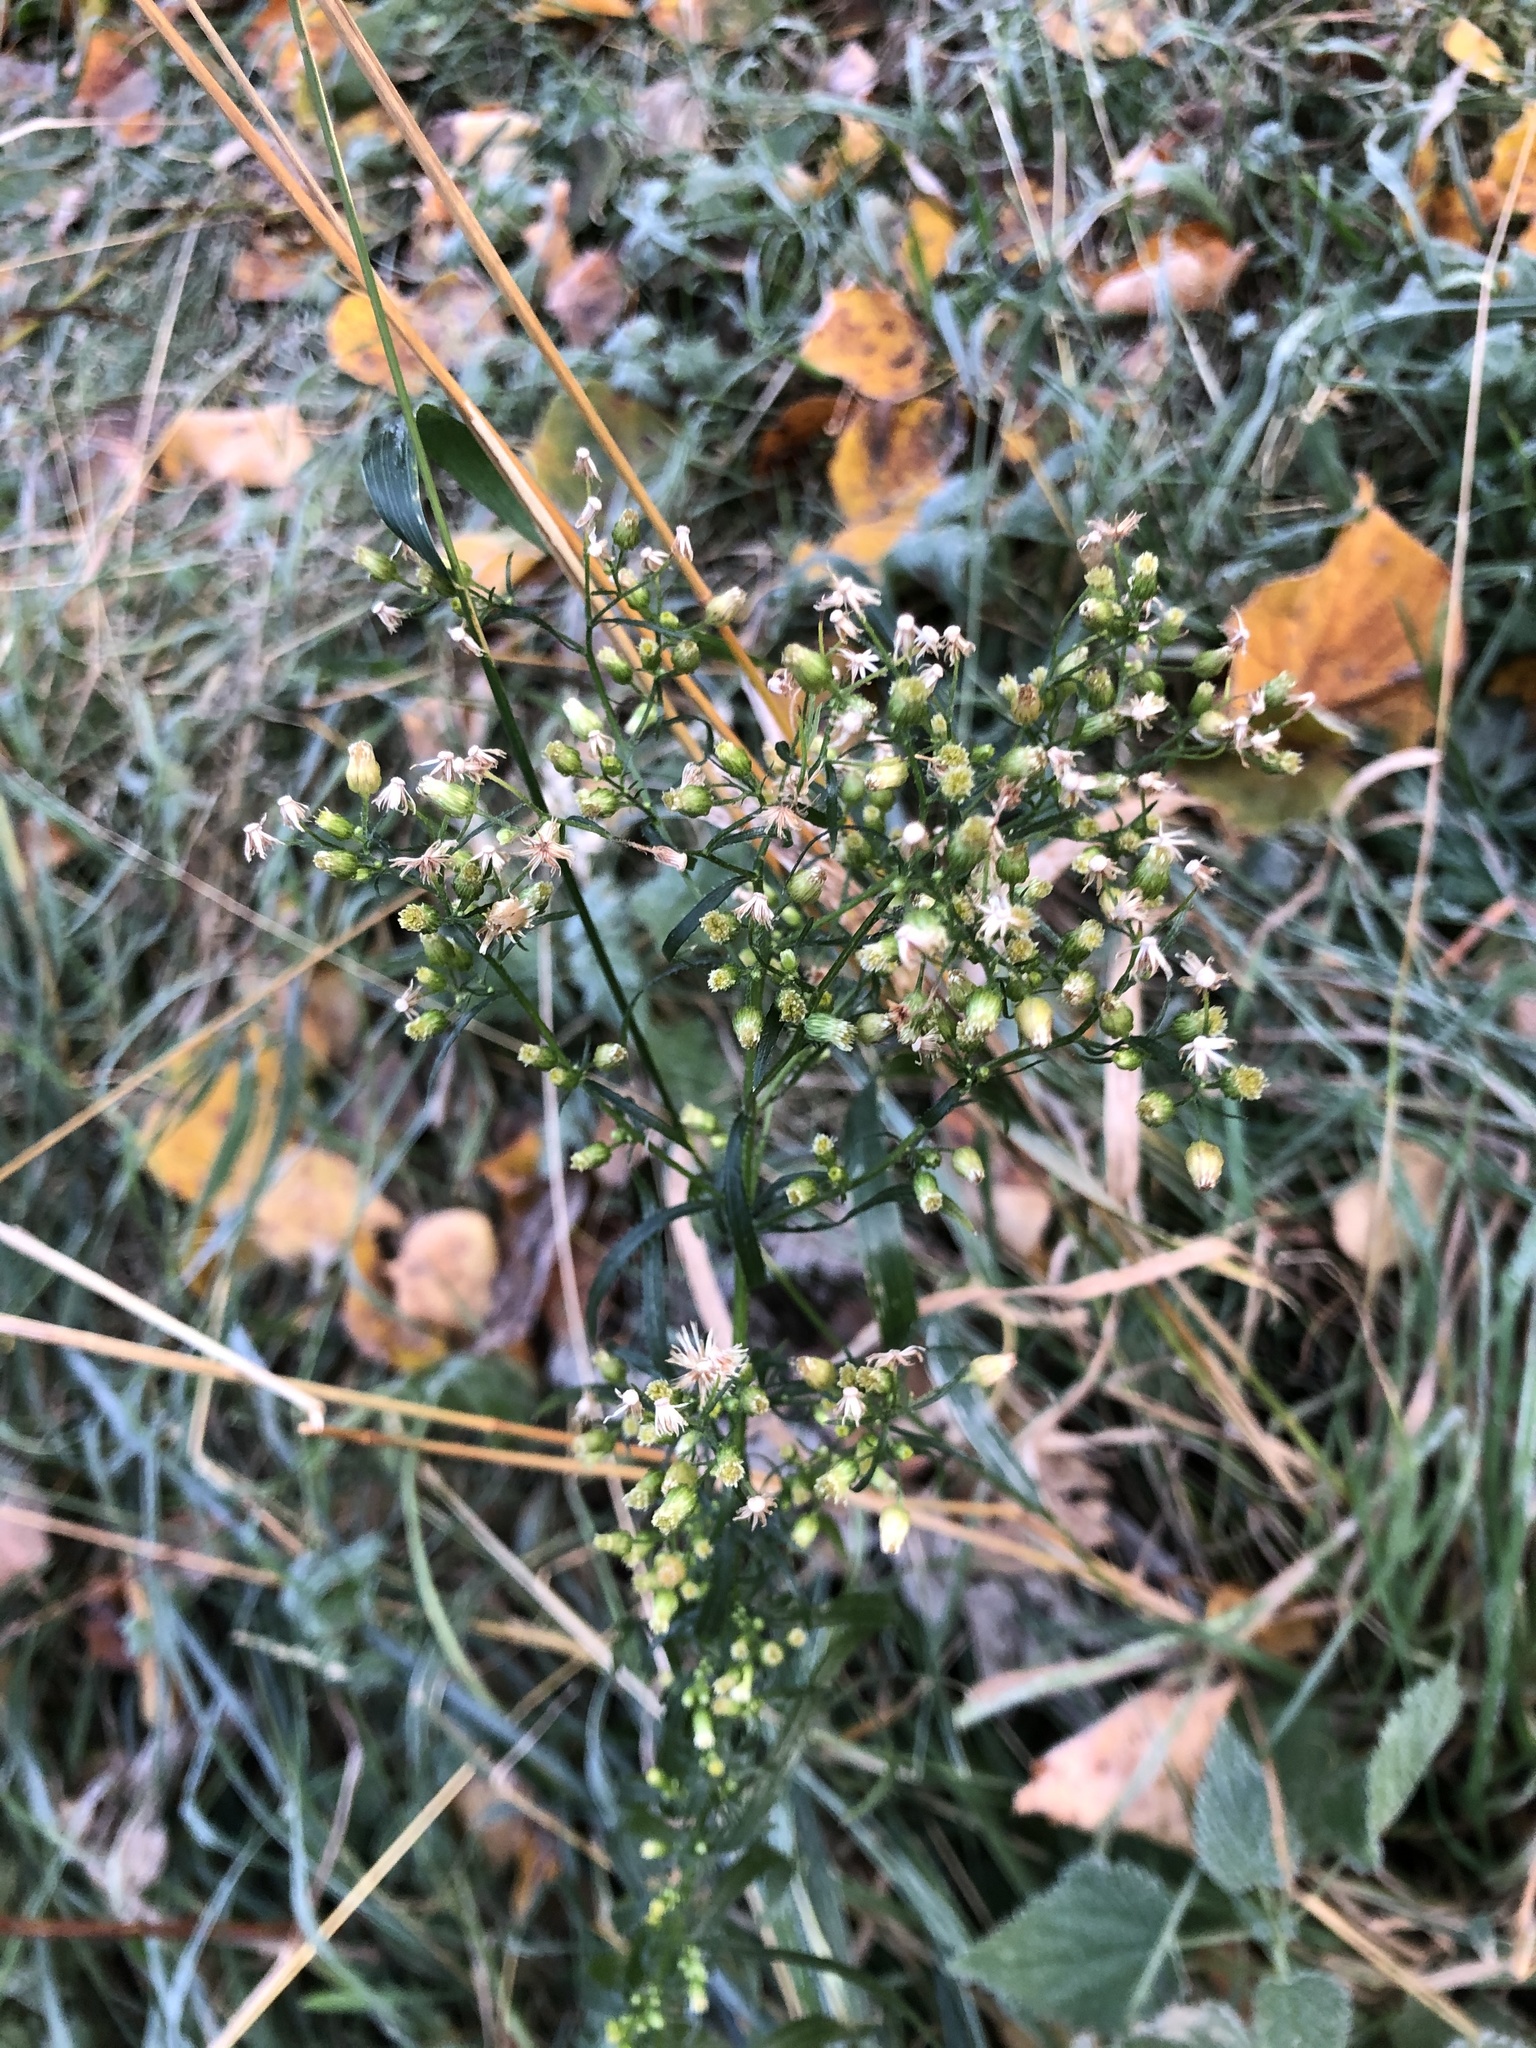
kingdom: Plantae
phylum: Tracheophyta
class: Magnoliopsida
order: Asterales
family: Asteraceae
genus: Erigeron
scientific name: Erigeron canadensis
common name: Canadian fleabane
